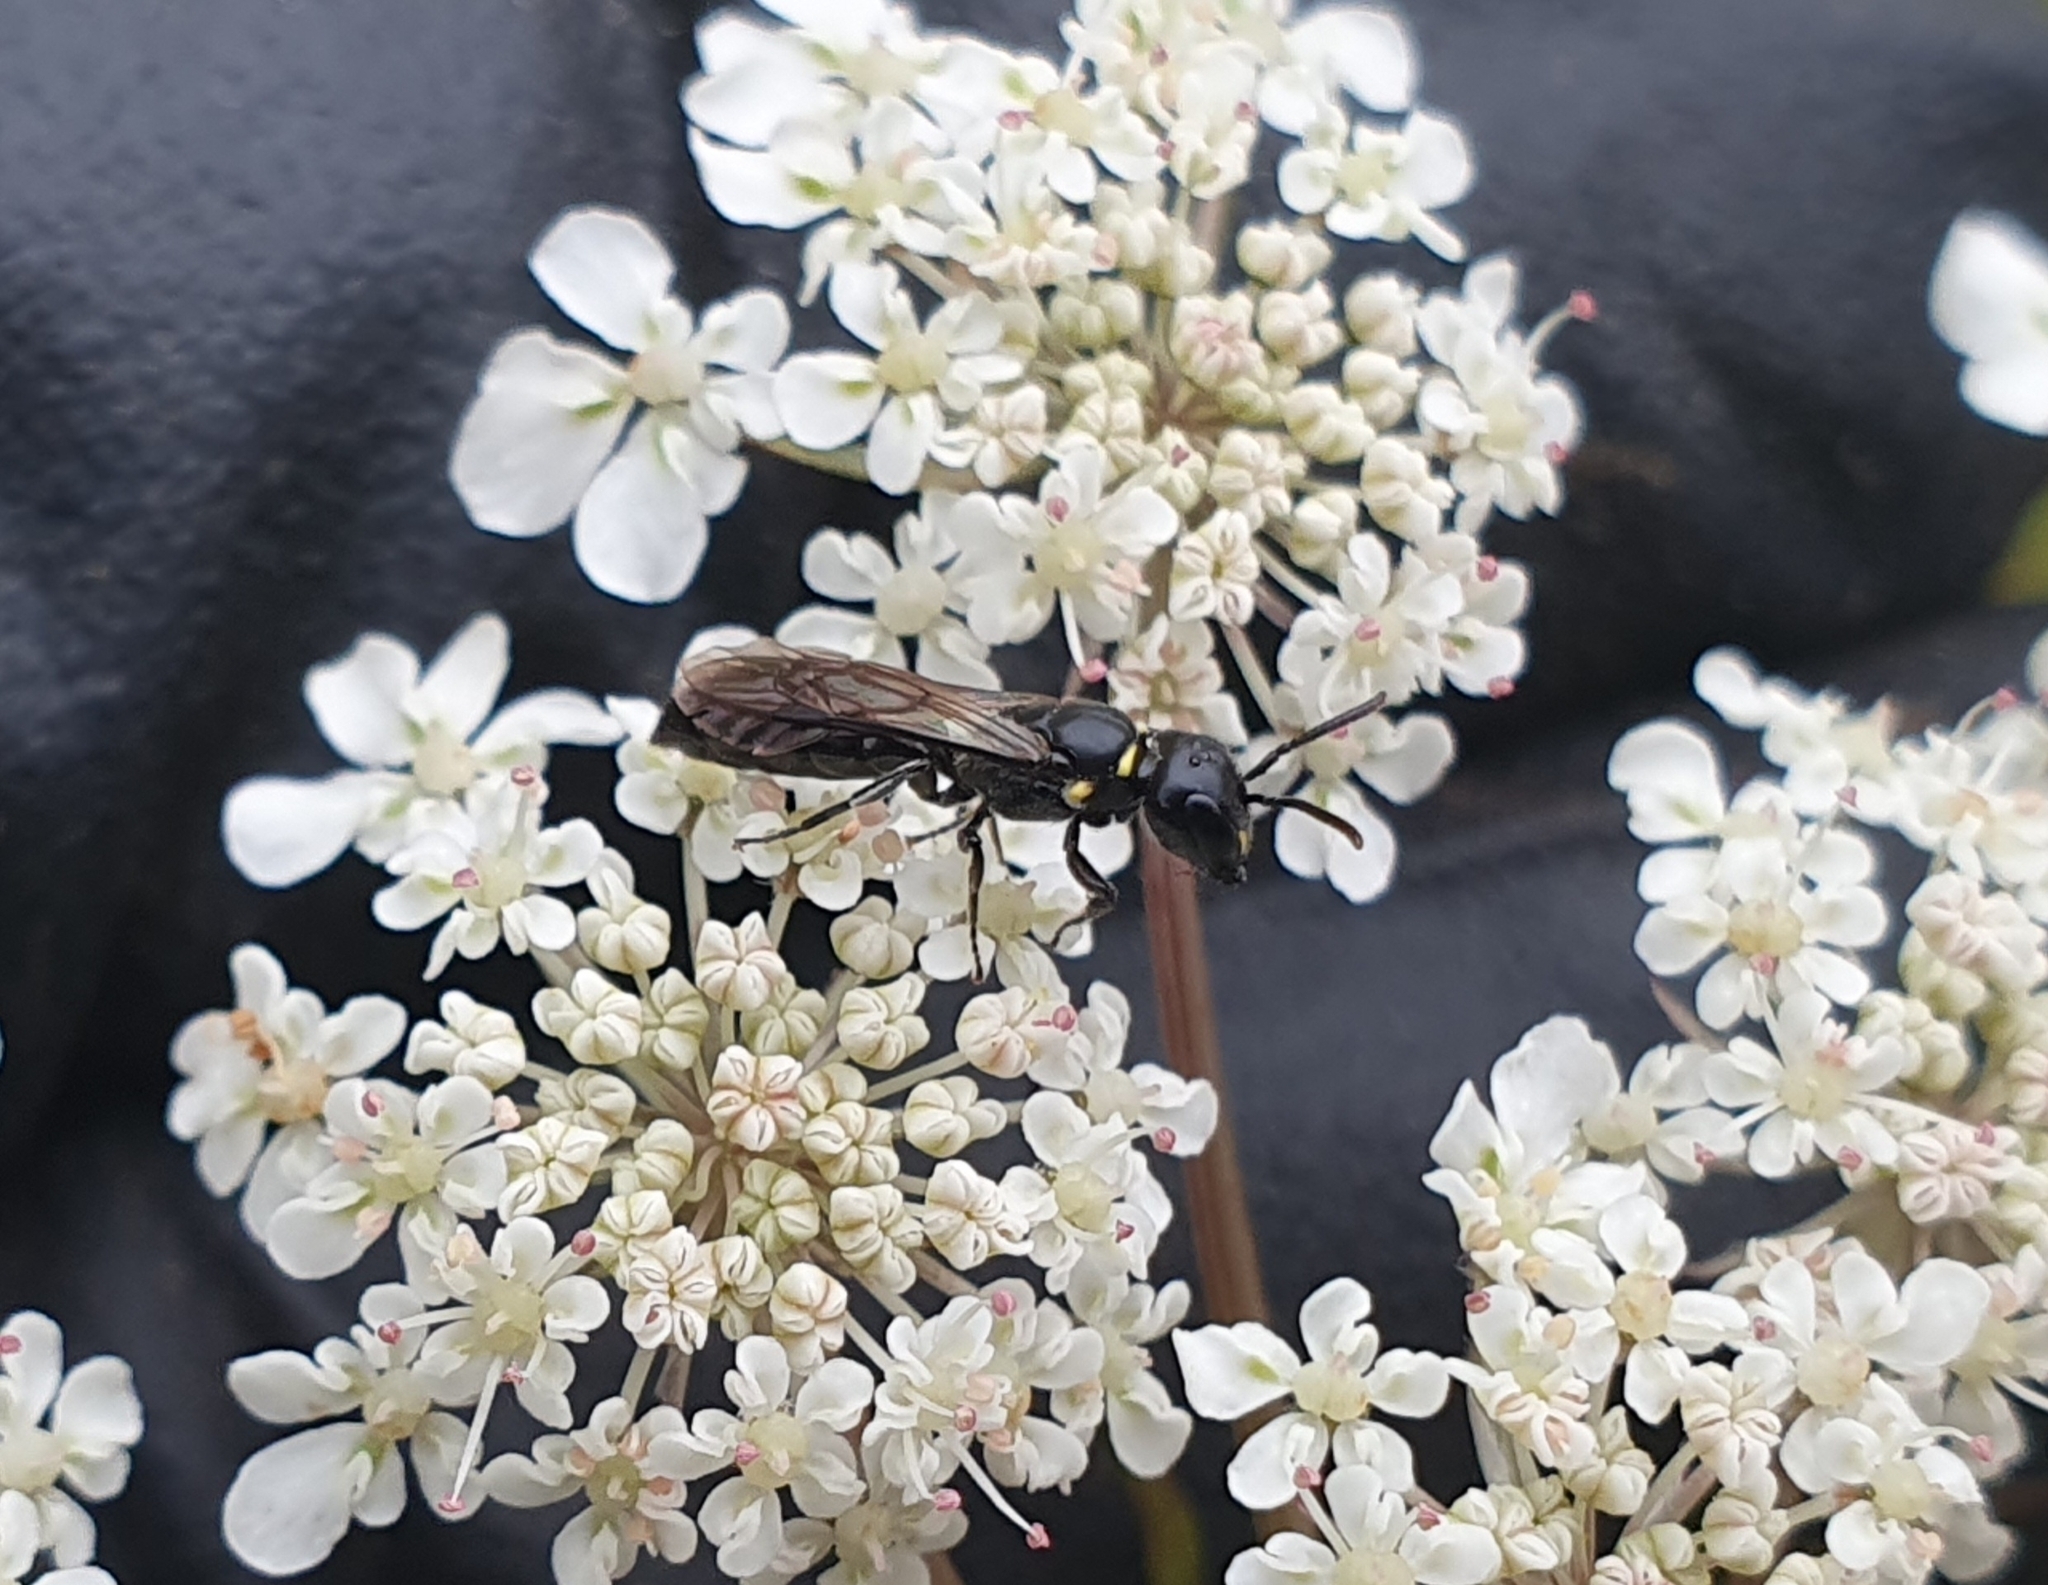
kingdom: Animalia
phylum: Arthropoda
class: Insecta
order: Hymenoptera
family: Colletidae
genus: Hylaeus
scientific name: Hylaeus capitosus
